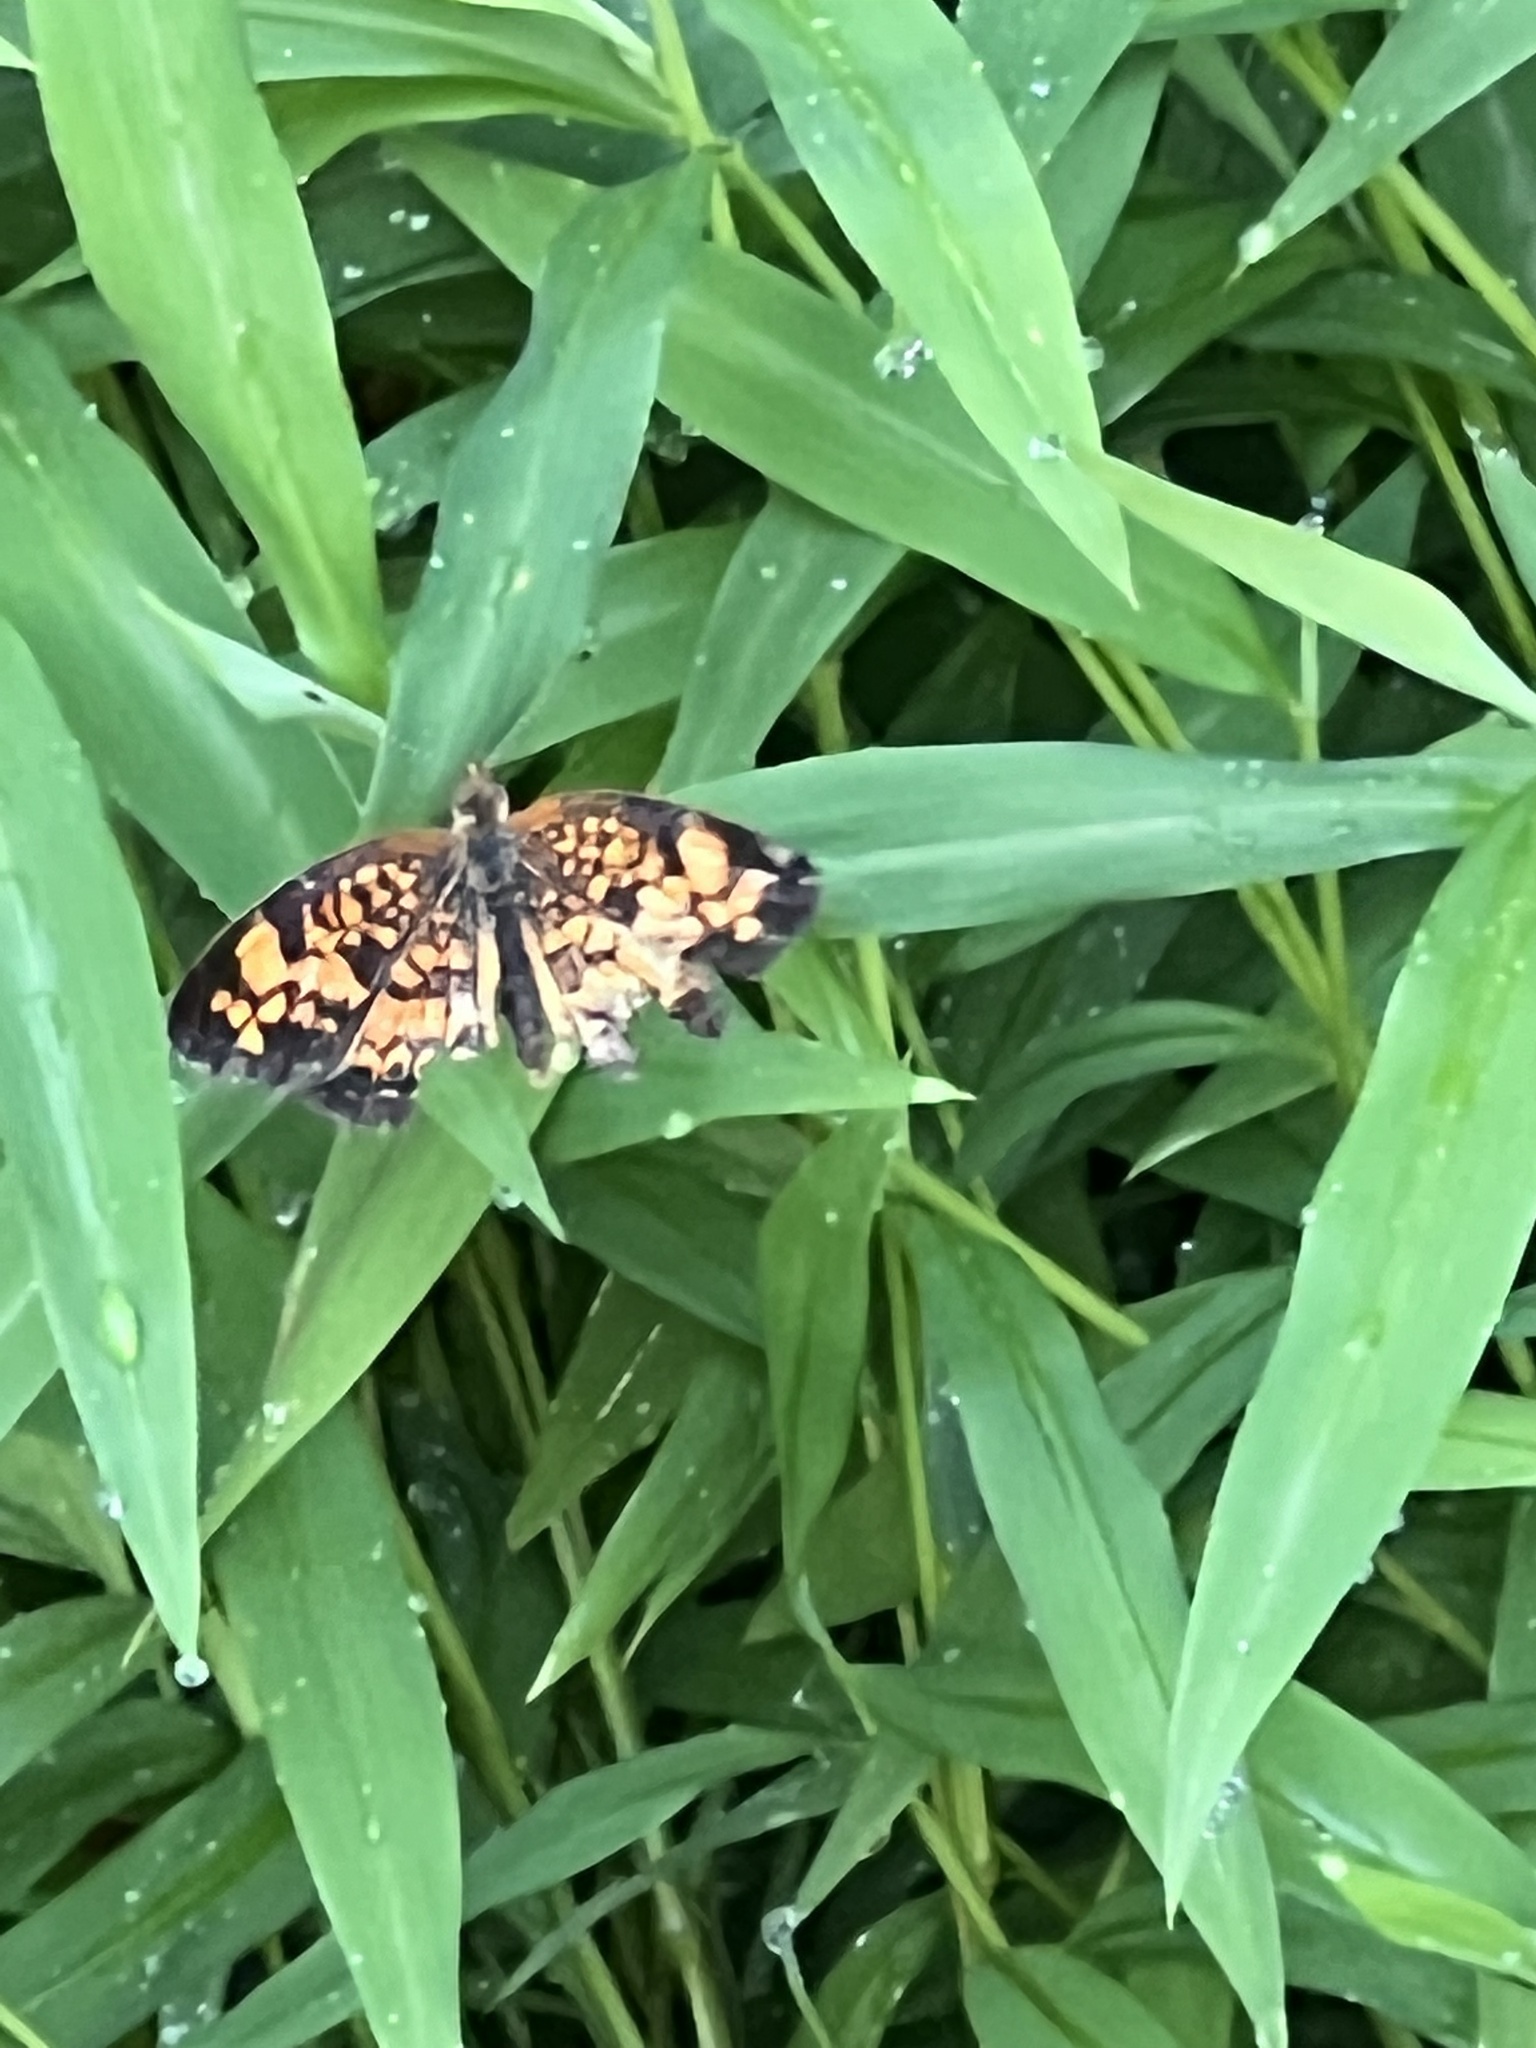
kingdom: Animalia
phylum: Arthropoda
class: Insecta
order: Lepidoptera
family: Nymphalidae
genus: Phyciodes
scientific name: Phyciodes tharos
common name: Pearl crescent
